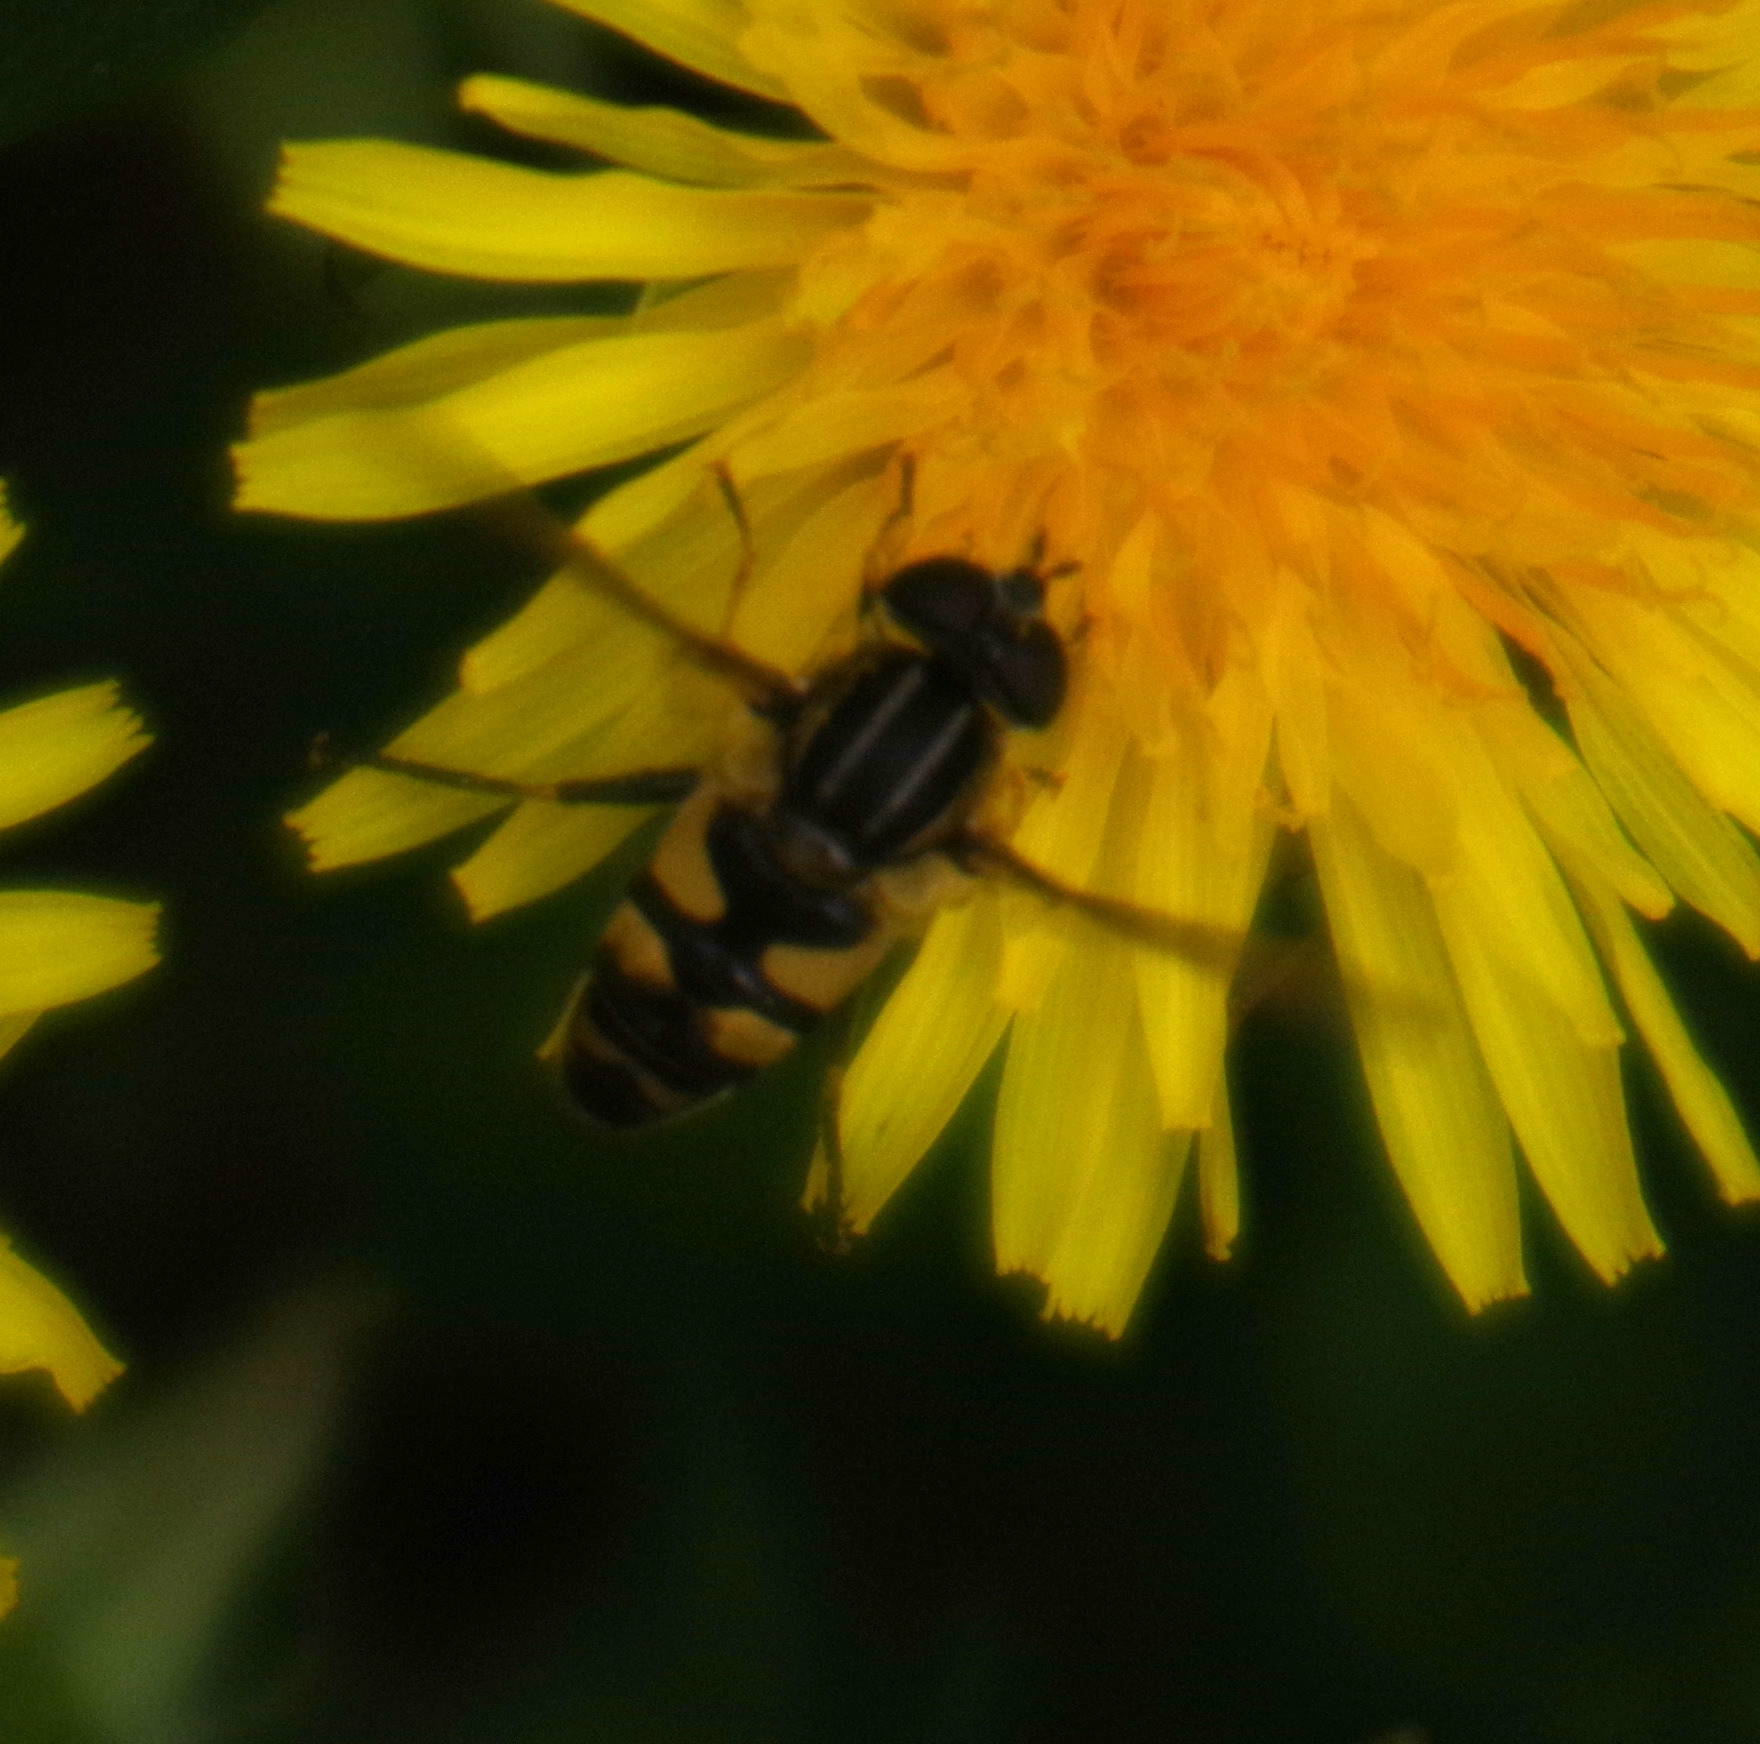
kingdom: Animalia
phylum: Arthropoda
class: Insecta
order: Diptera
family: Syrphidae
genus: Helophilus
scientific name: Helophilus fasciatus
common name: Narrow-headed marsh fly
